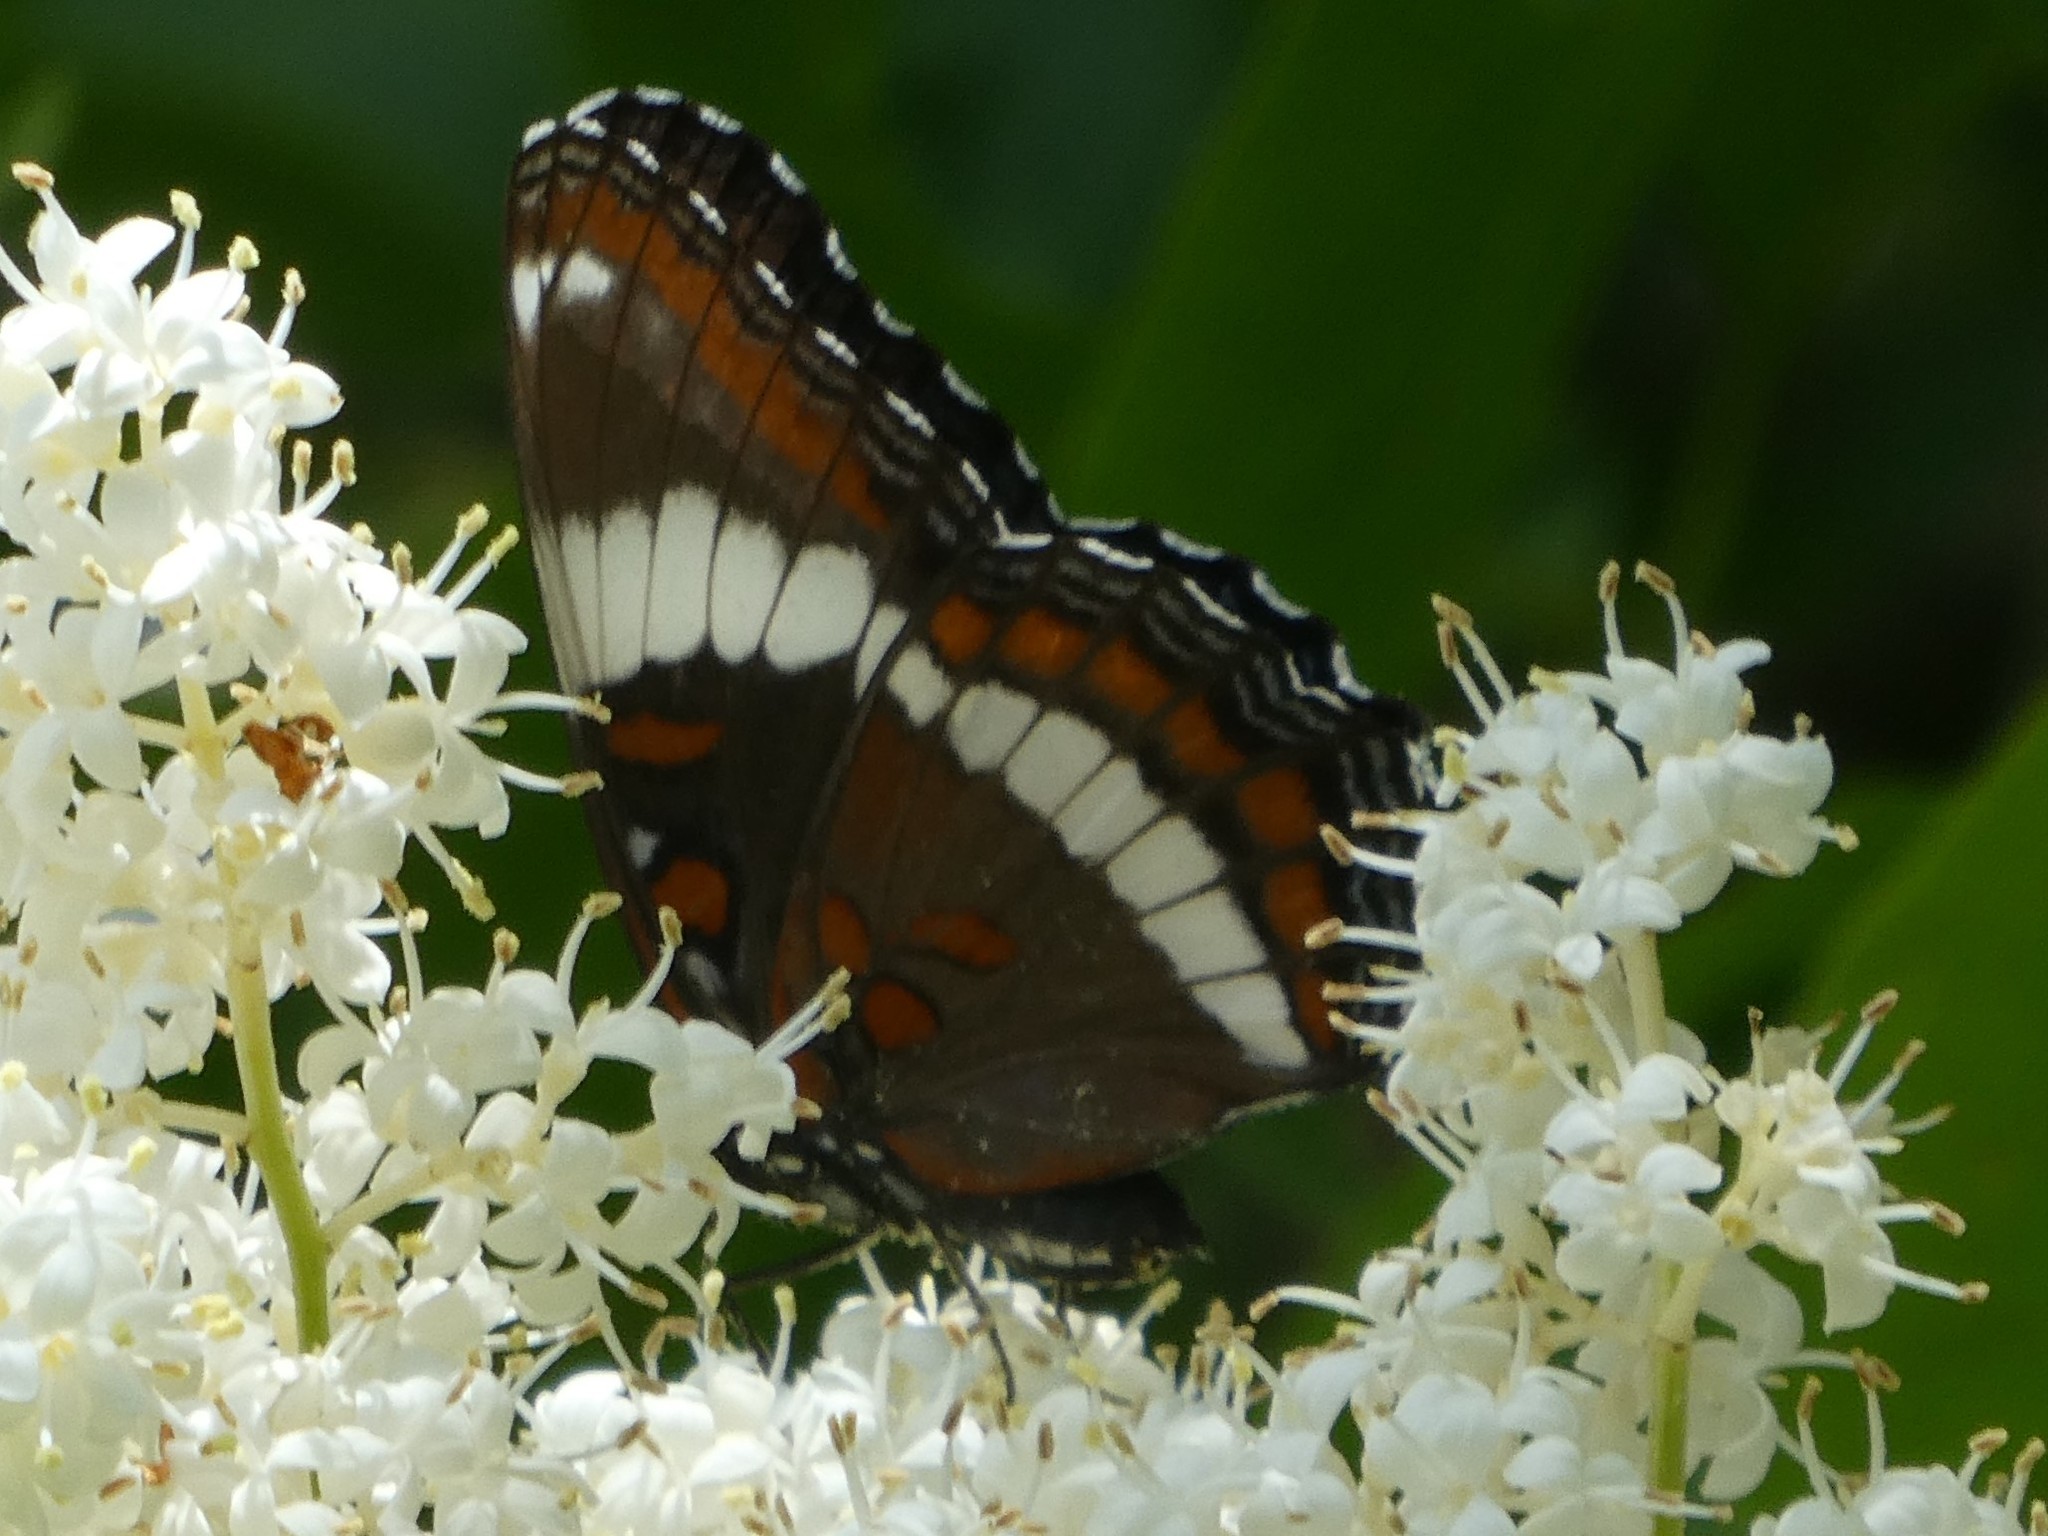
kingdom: Animalia
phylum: Arthropoda
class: Insecta
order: Lepidoptera
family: Nymphalidae
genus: Limenitis
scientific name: Limenitis arthemis
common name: Red-spotted admiral
